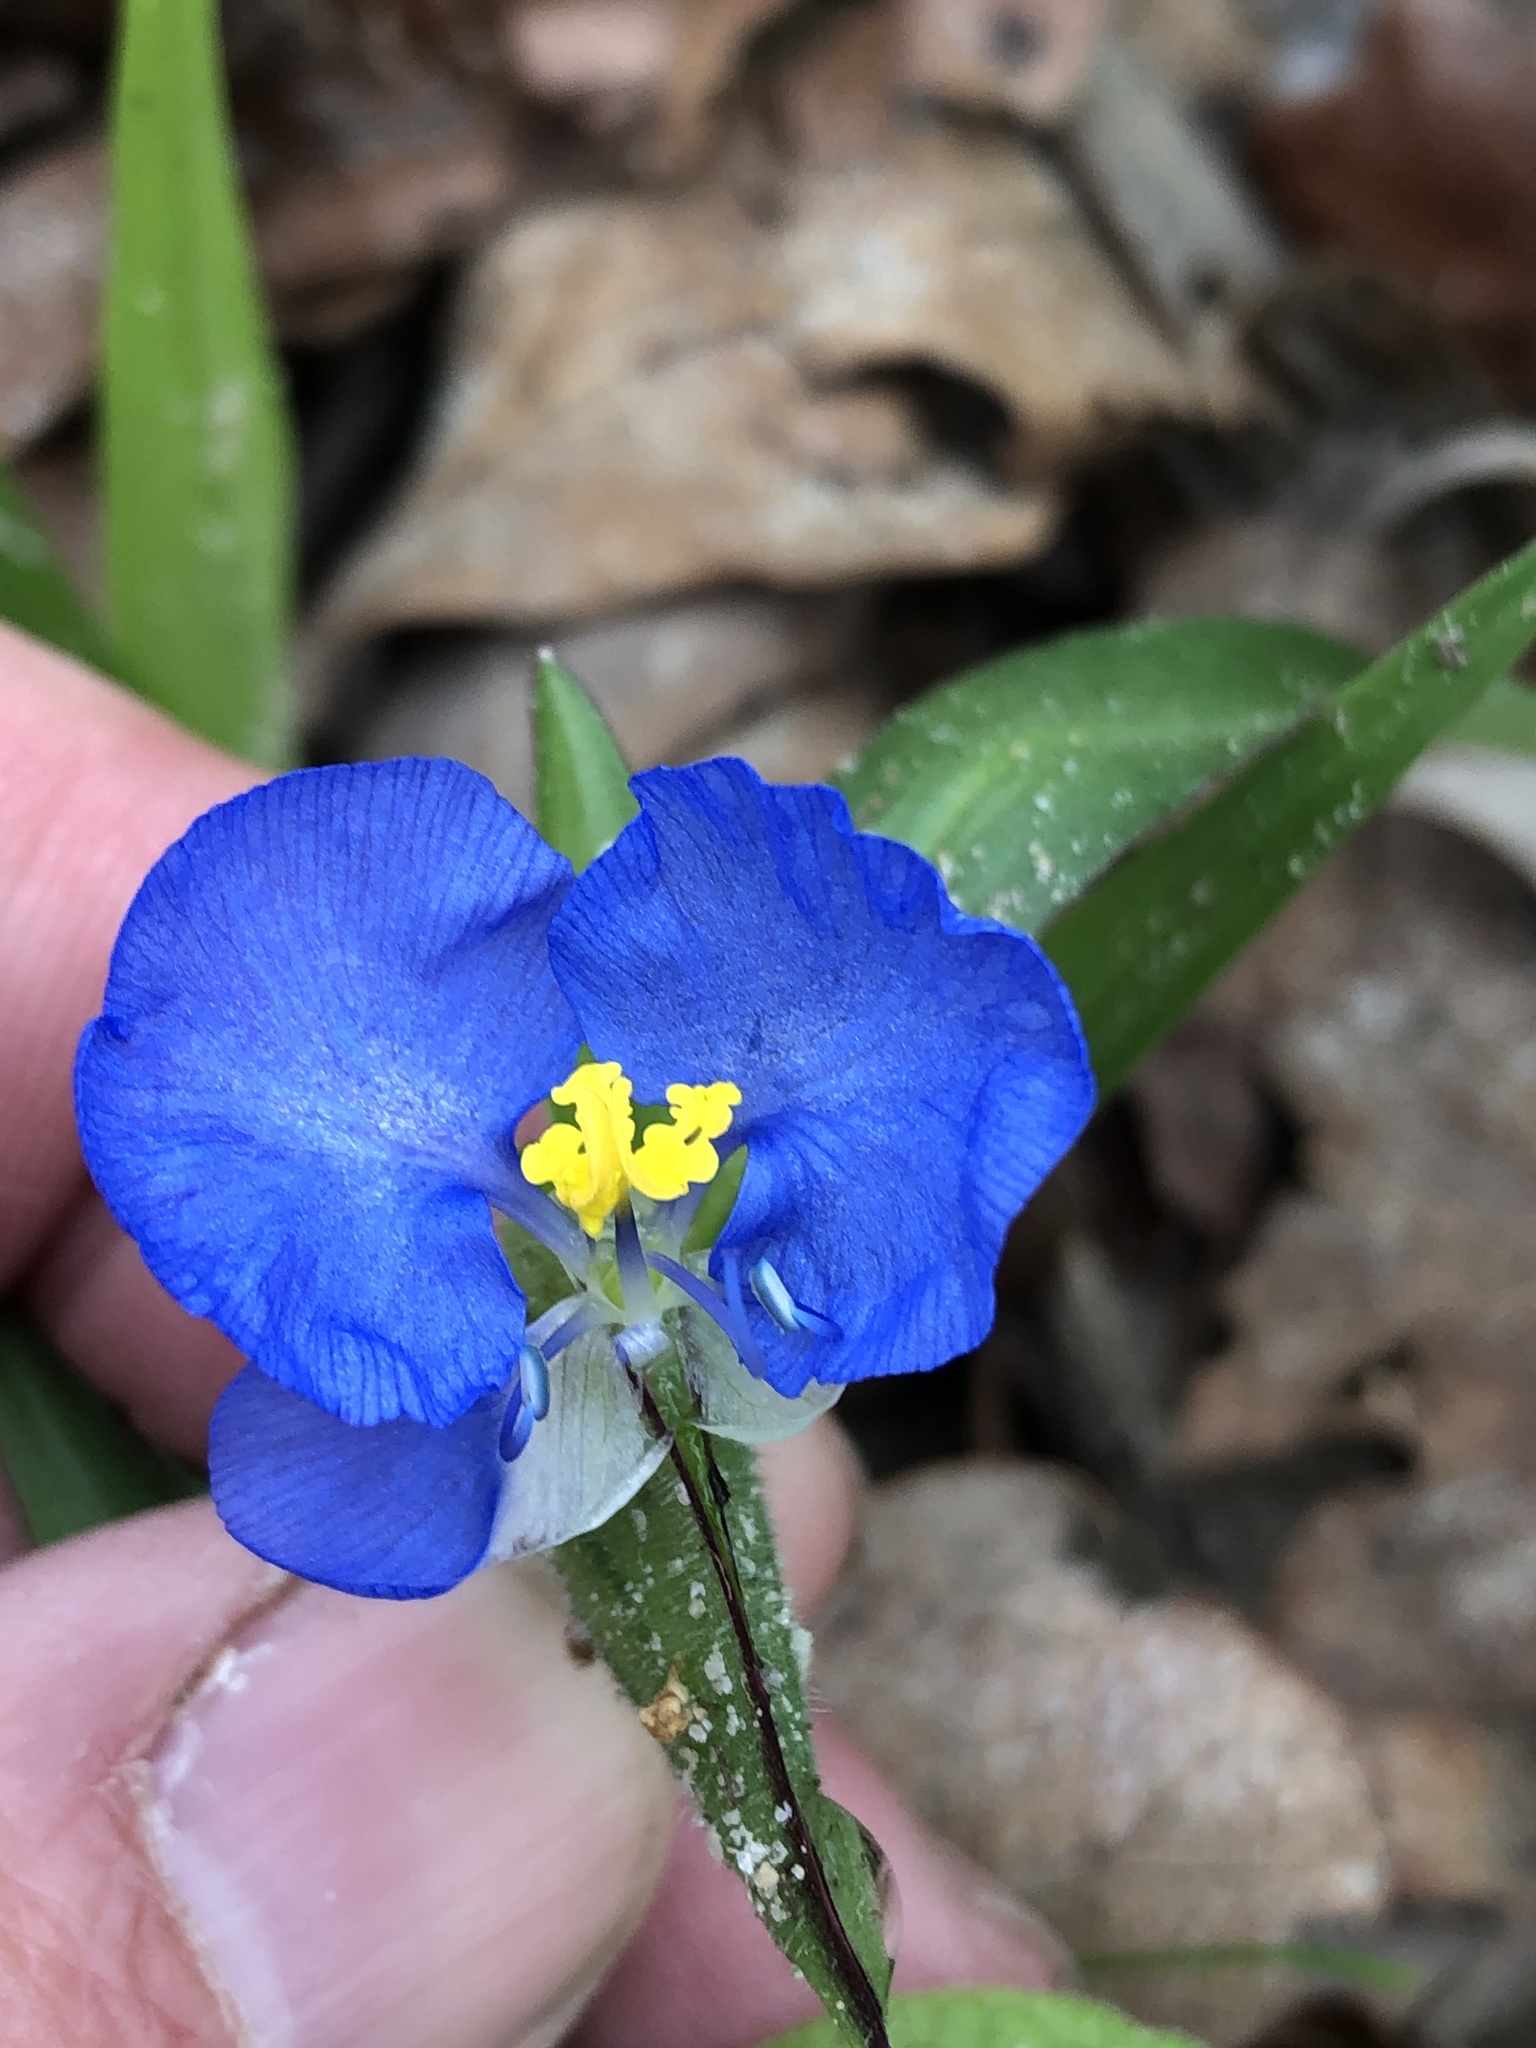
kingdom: Plantae
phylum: Tracheophyta
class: Liliopsida
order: Commelinales
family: Commelinaceae
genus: Commelina
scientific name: Commelina erecta
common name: Blousel blommetjie
